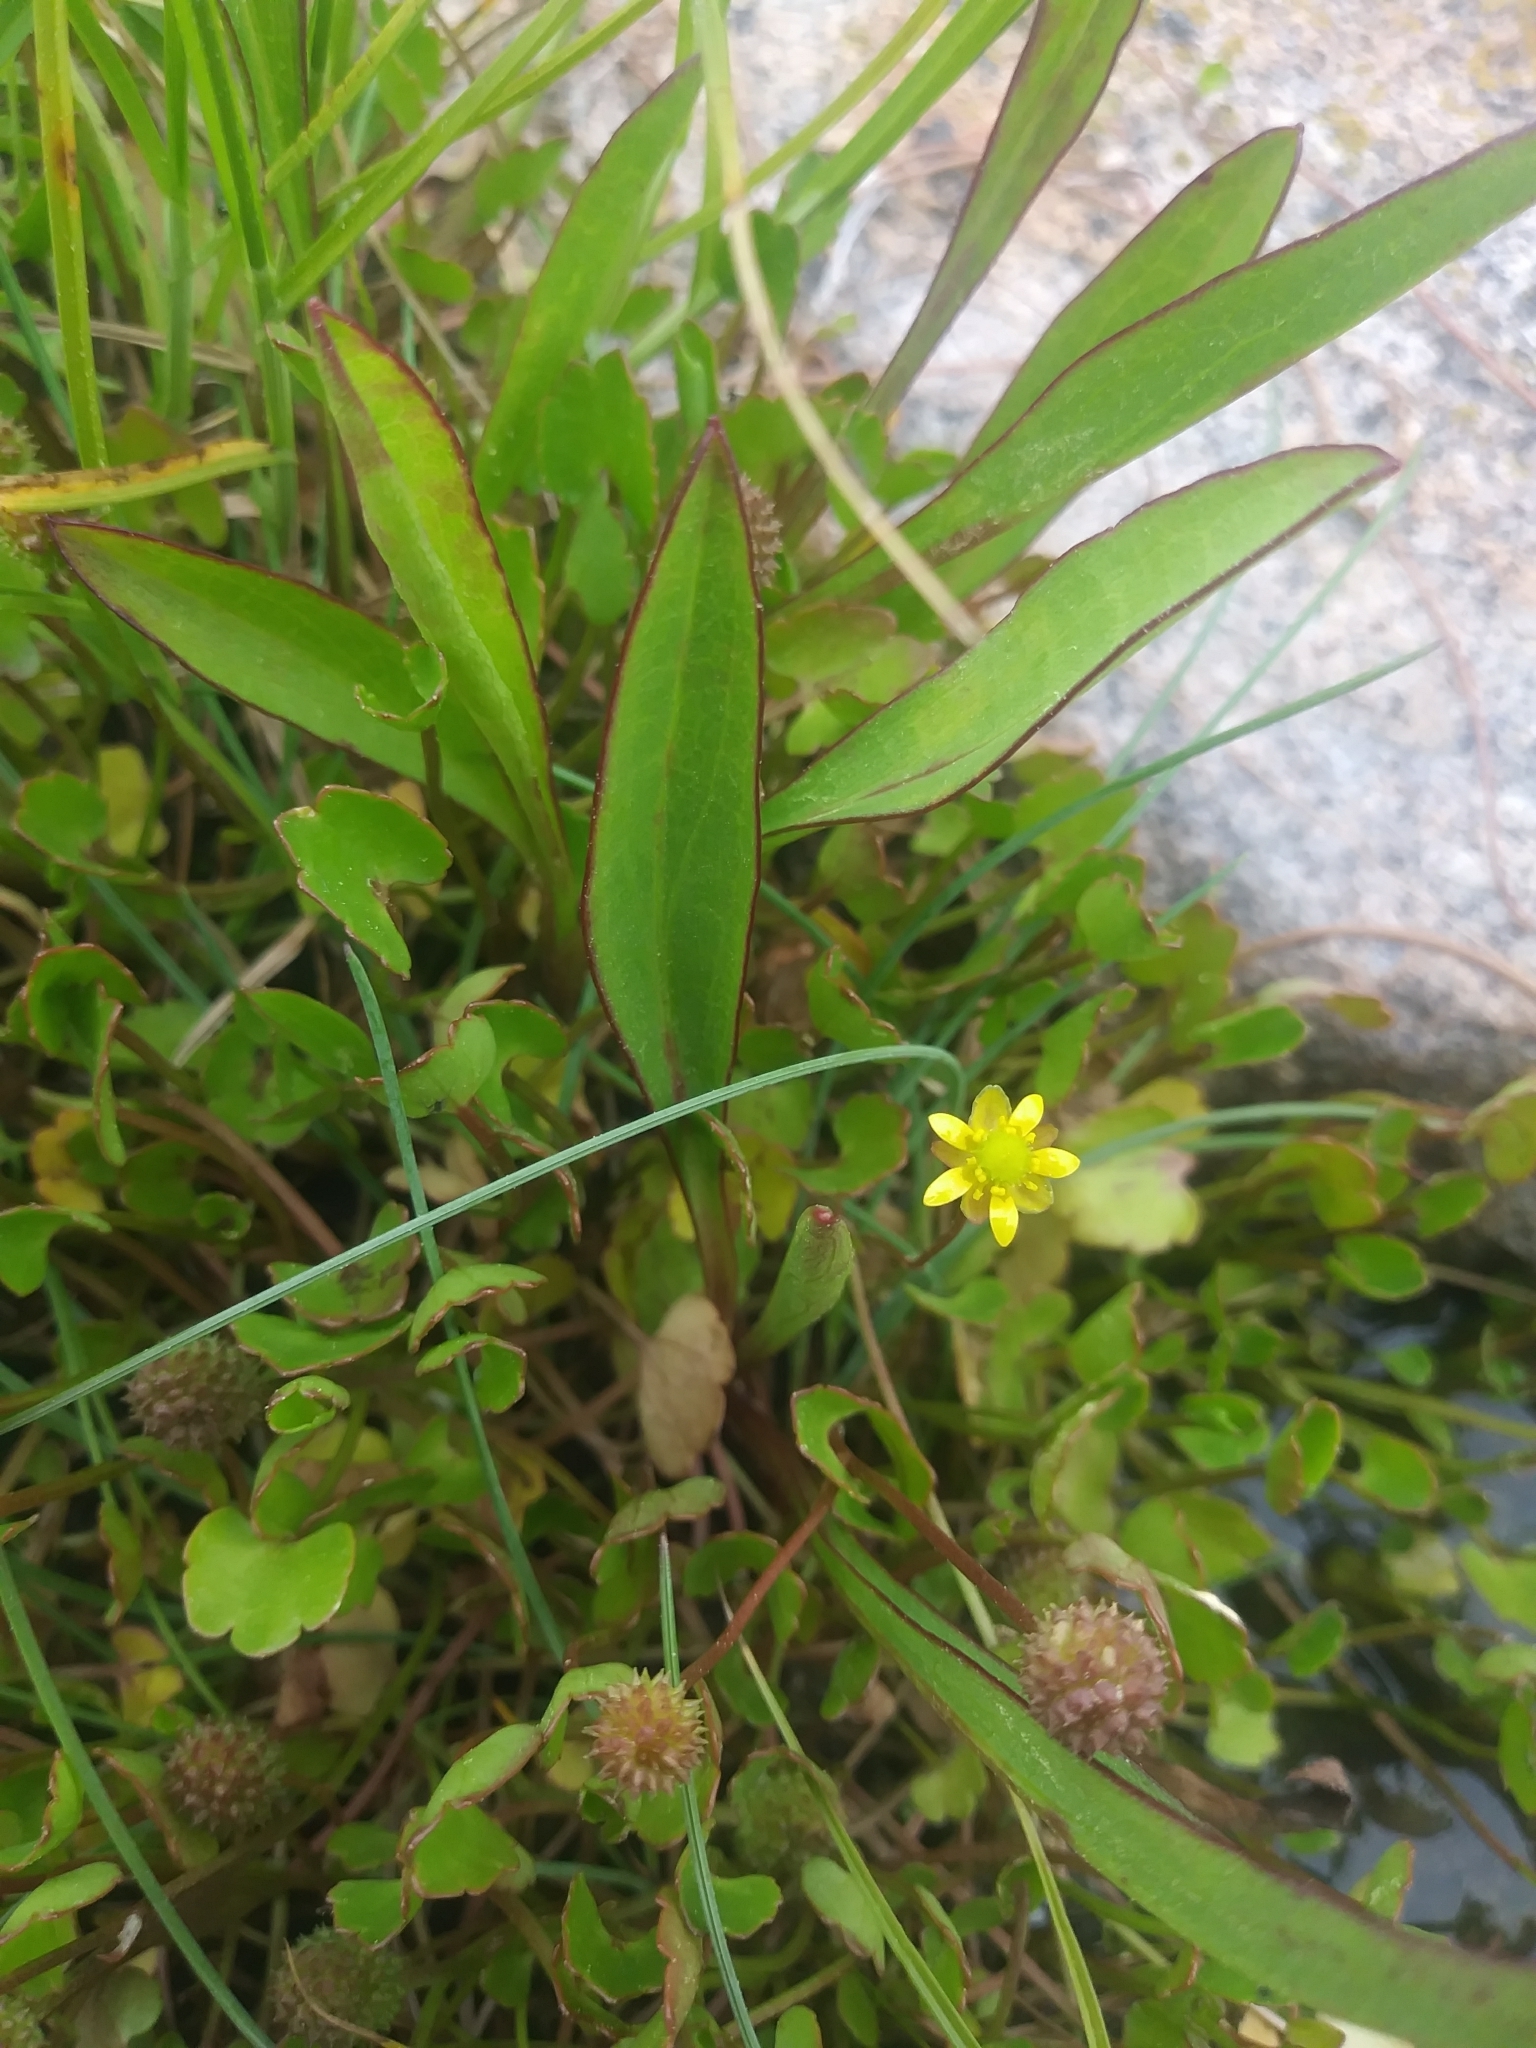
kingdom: Plantae
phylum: Tracheophyta
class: Magnoliopsida
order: Ranunculales
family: Ranunculaceae
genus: Halerpestes
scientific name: Halerpestes cymbalaria
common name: Seaside crowfoot
